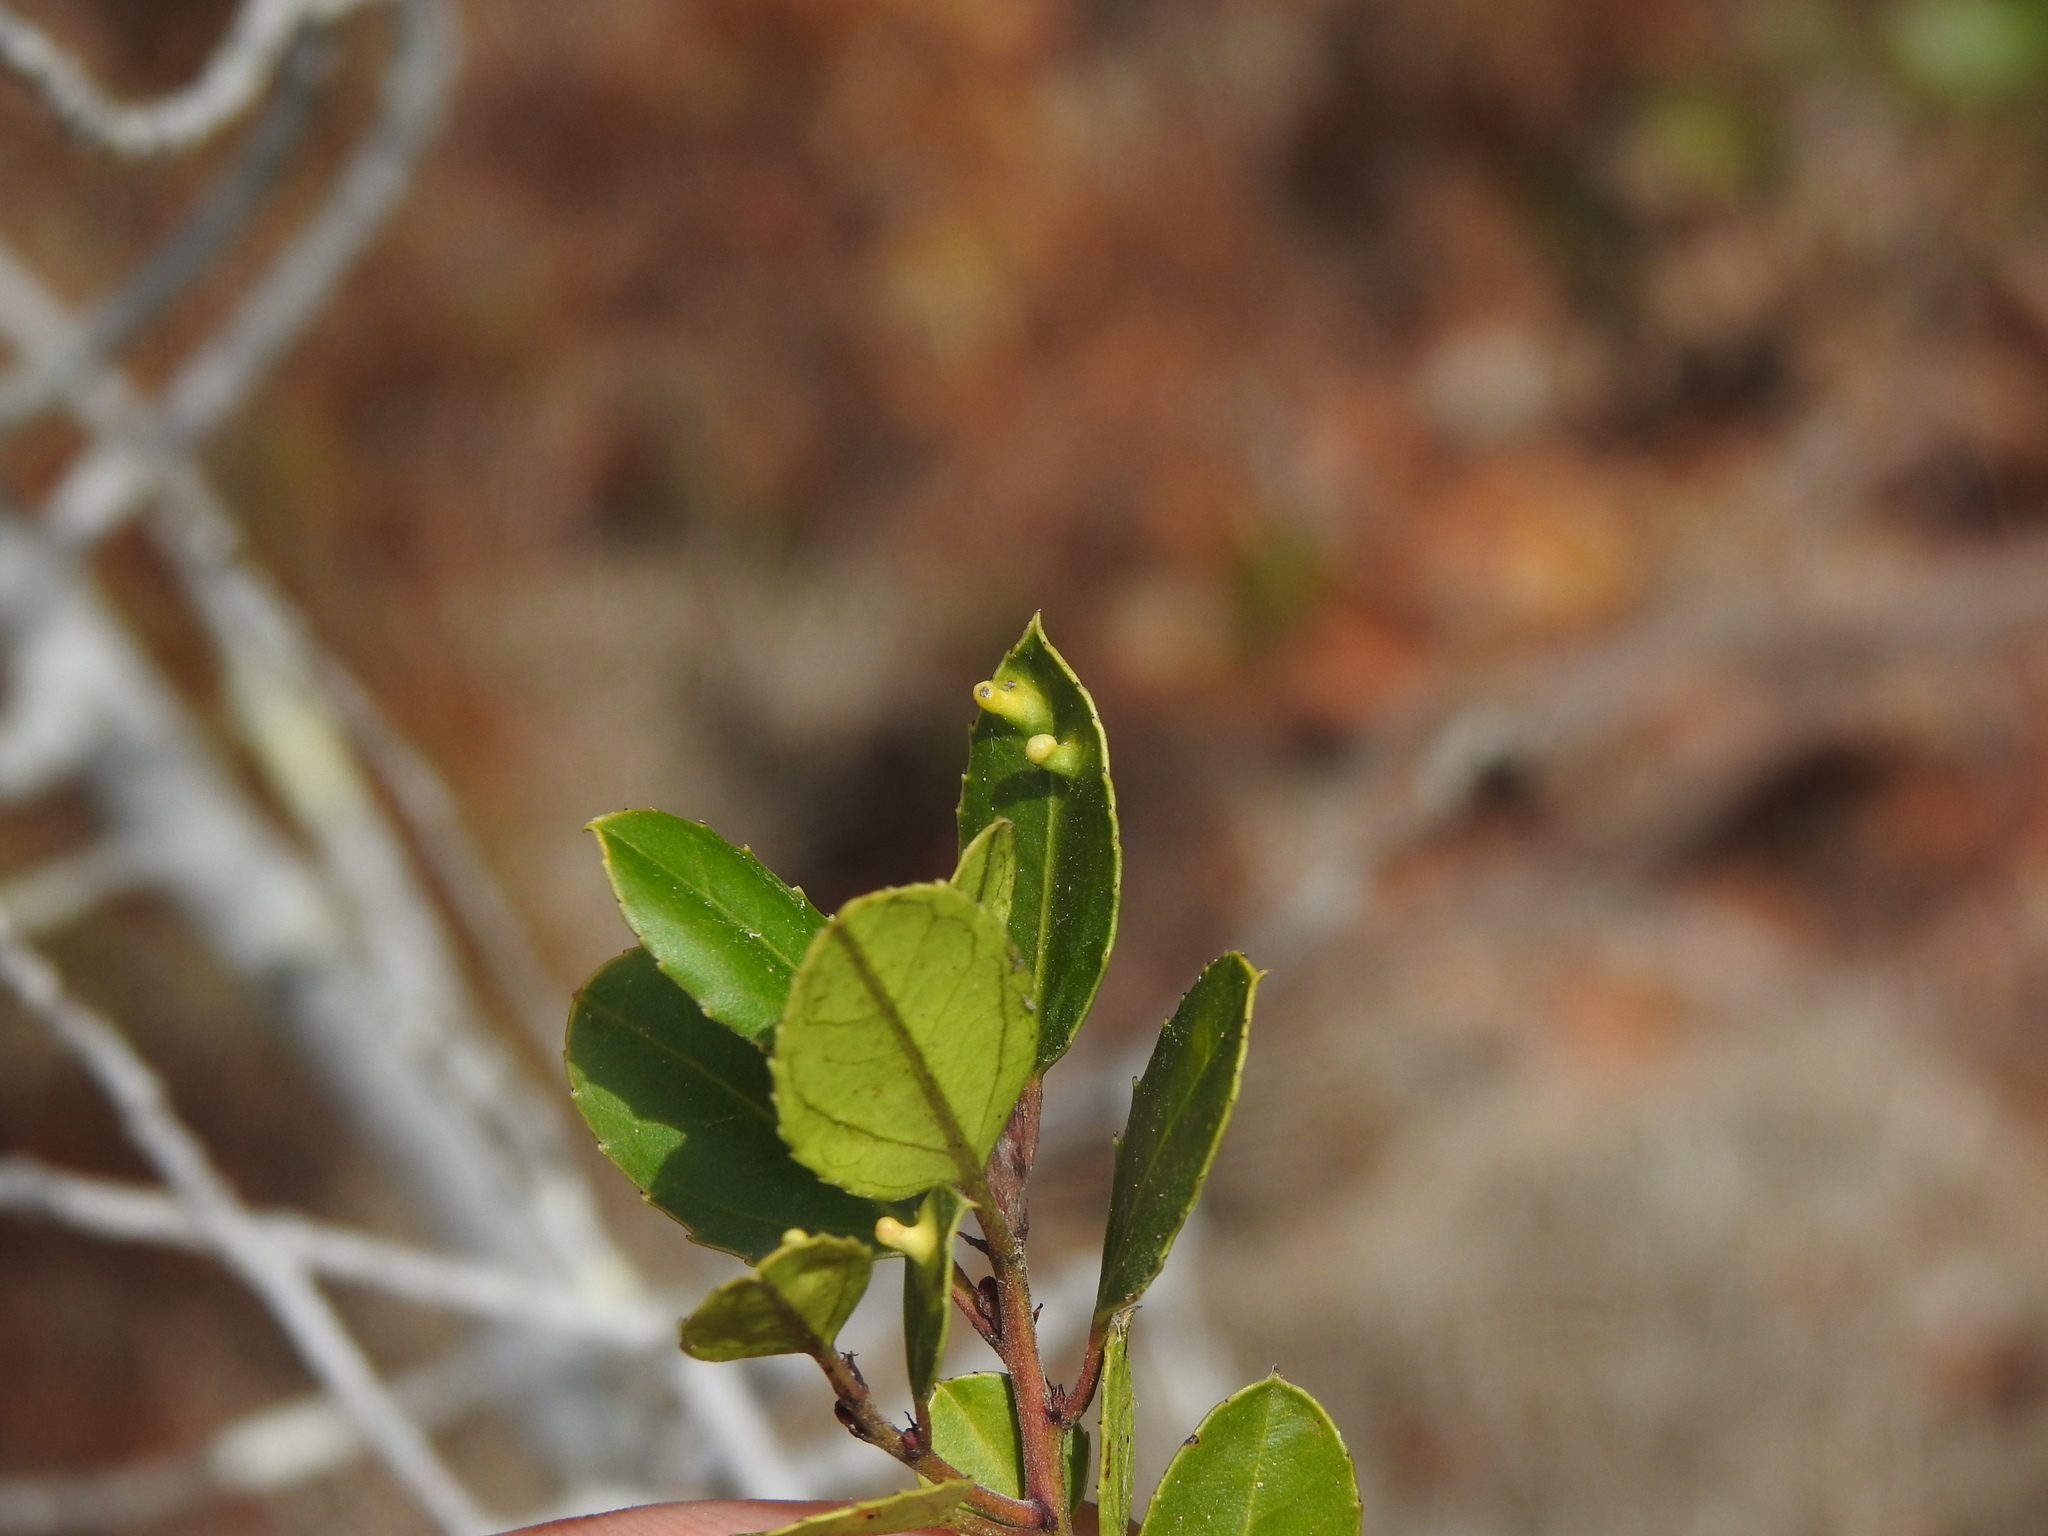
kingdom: Animalia
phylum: Arthropoda
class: Insecta
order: Hemiptera
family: Triozidae
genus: Trioza
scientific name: Trioza kiefferi
